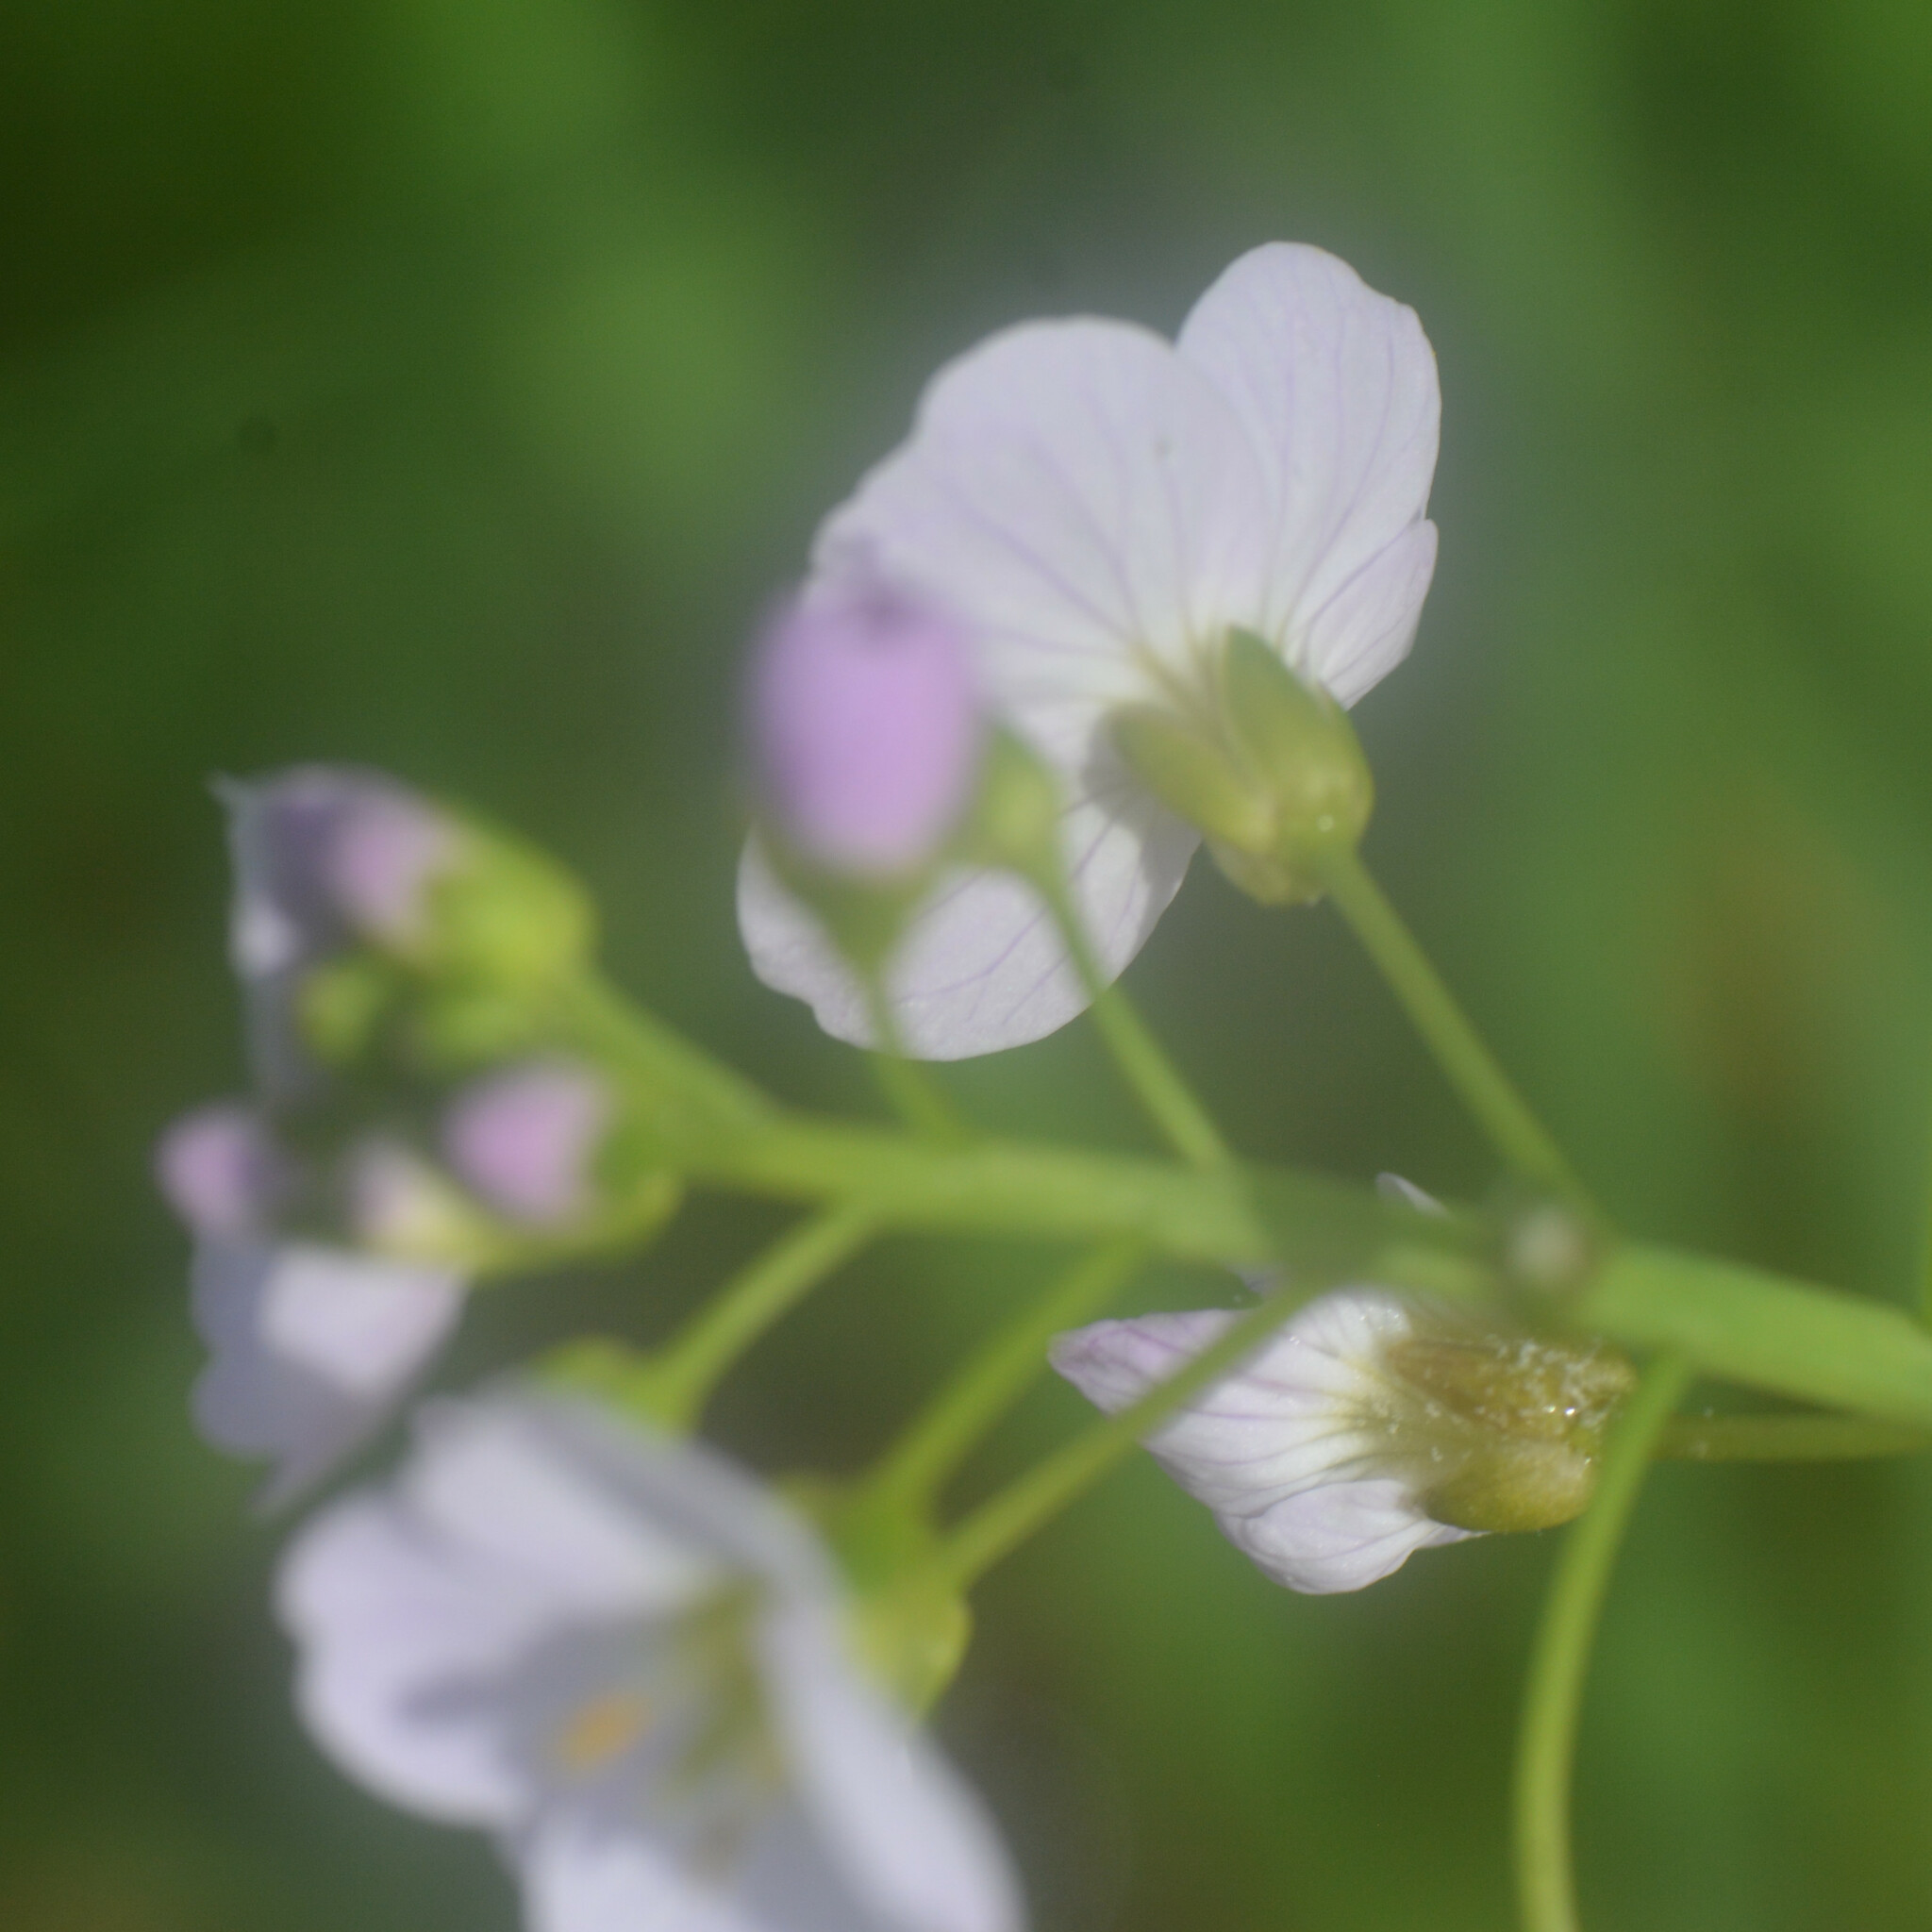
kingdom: Plantae
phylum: Tracheophyta
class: Magnoliopsida
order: Brassicales
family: Brassicaceae
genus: Cardamine
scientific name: Cardamine pratensis
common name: Cuckoo flower
